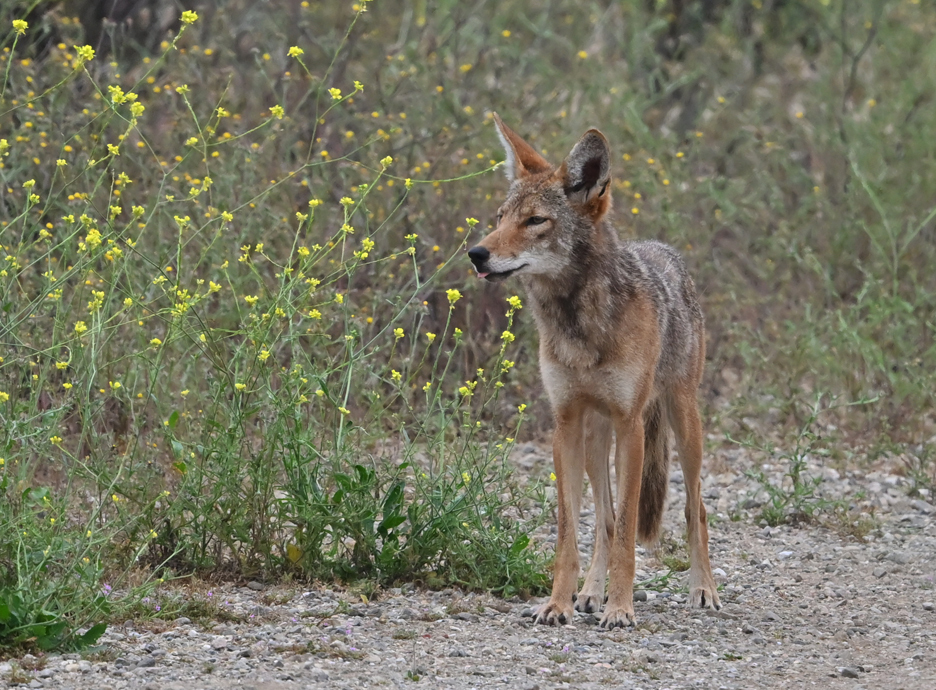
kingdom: Animalia
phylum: Chordata
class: Mammalia
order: Carnivora
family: Canidae
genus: Canis
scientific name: Canis latrans
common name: Coyote
